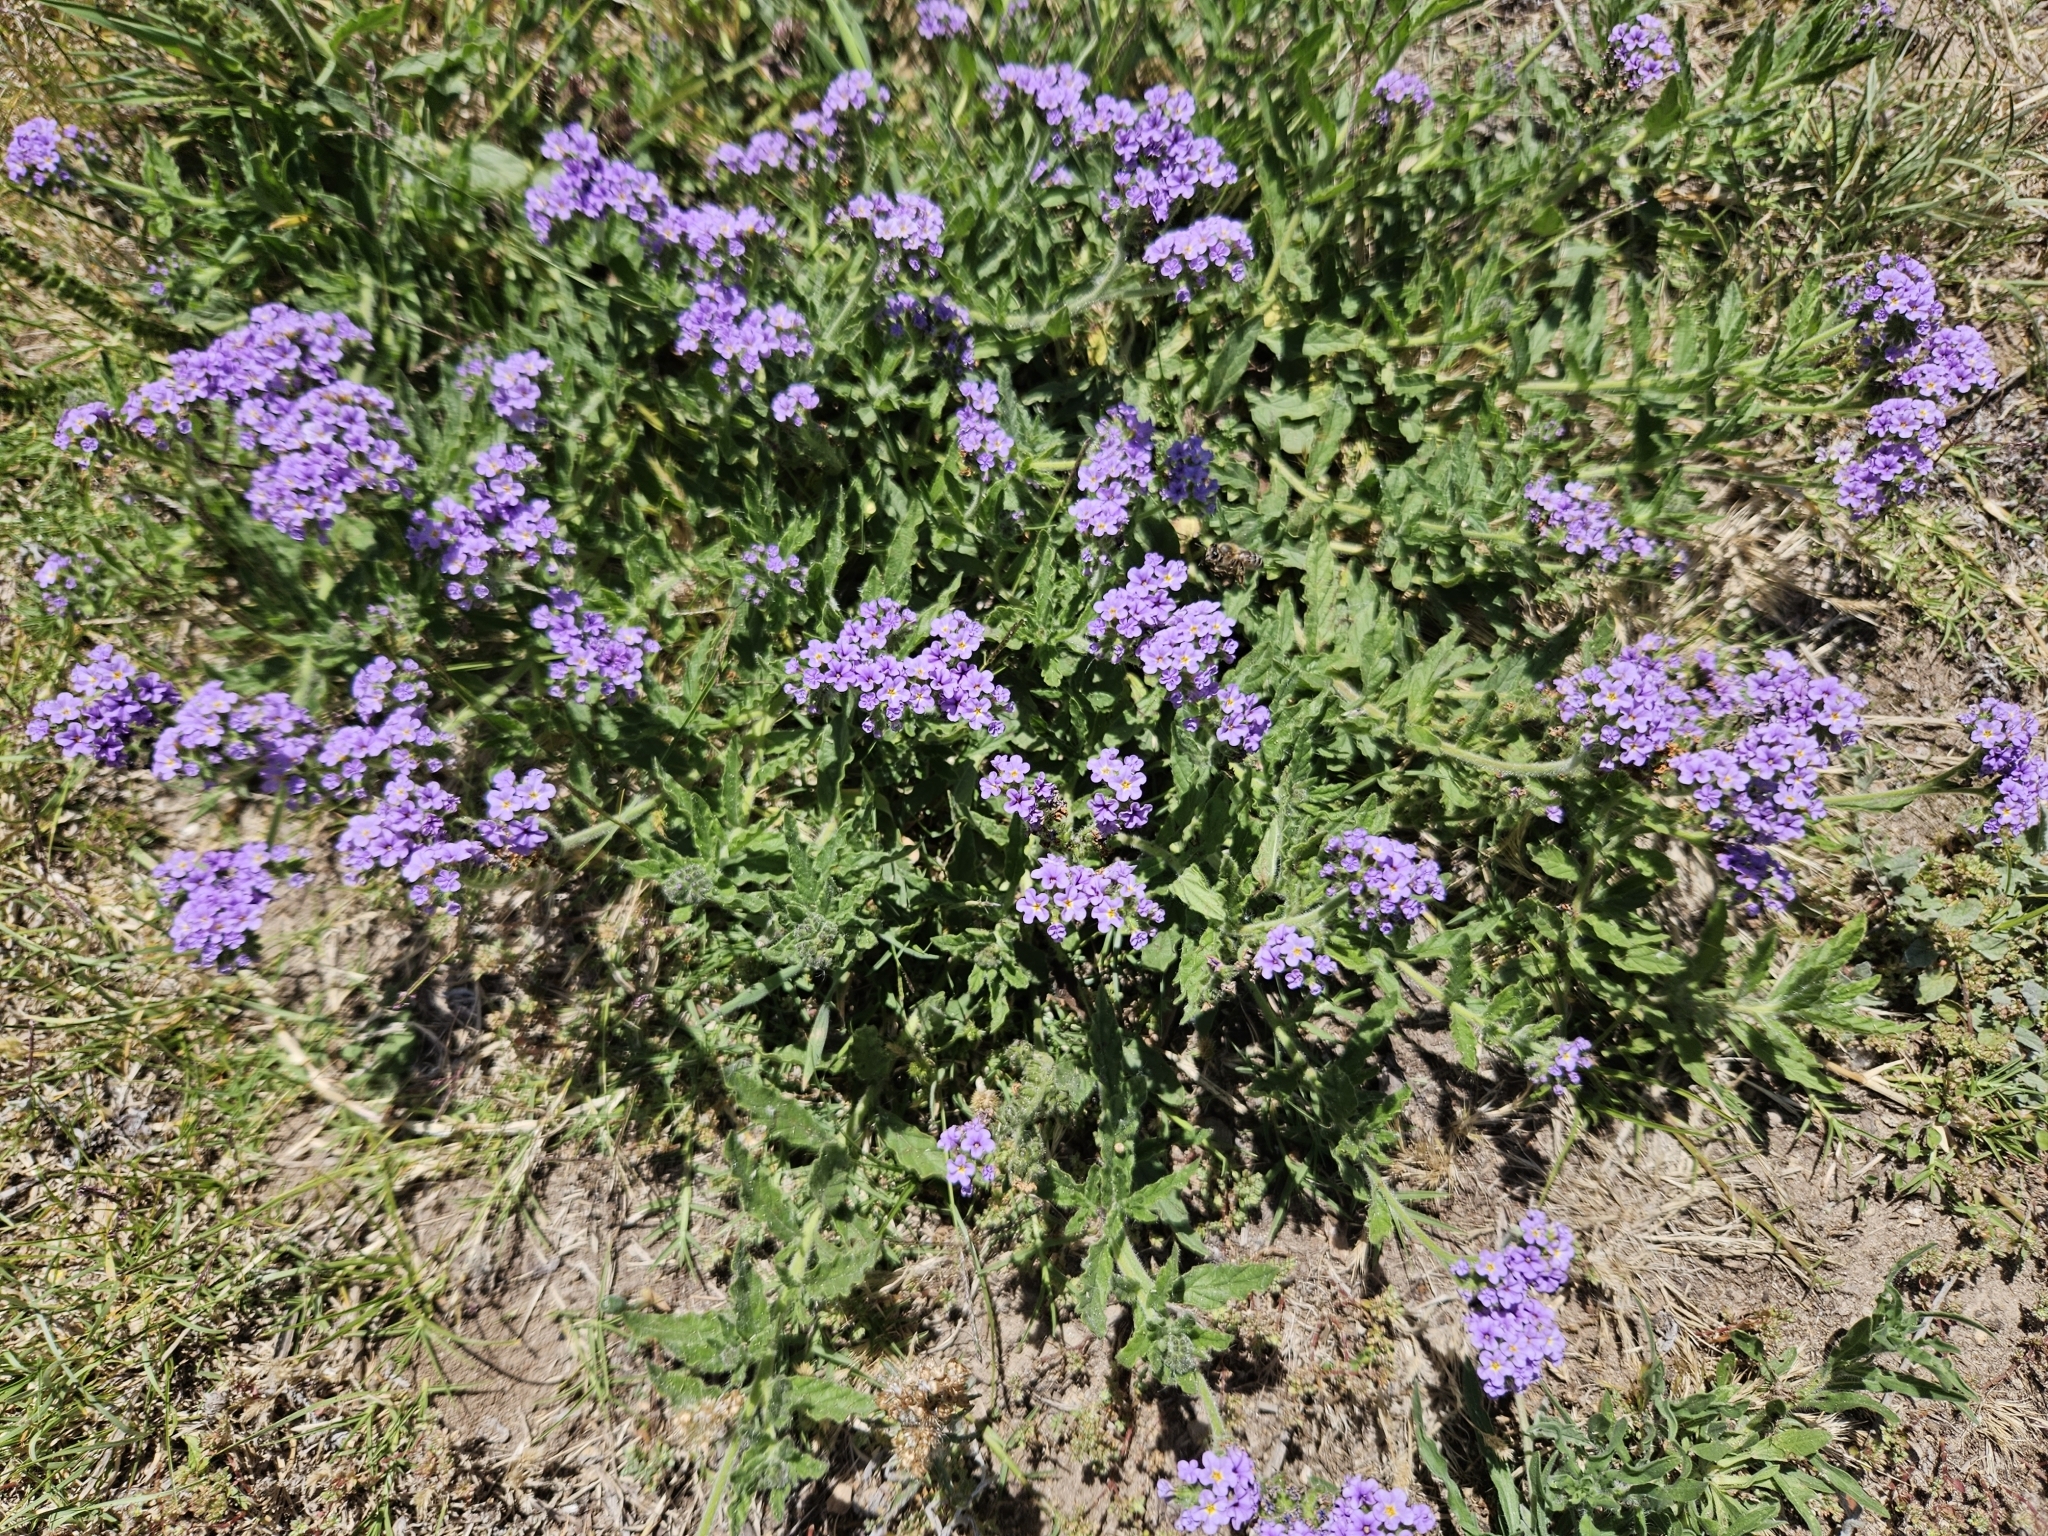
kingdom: Plantae
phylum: Tracheophyta
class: Magnoliopsida
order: Boraginales
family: Heliotropiaceae
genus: Heliotropium
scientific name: Heliotropium amplexicaule
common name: Clasping heliotrope
